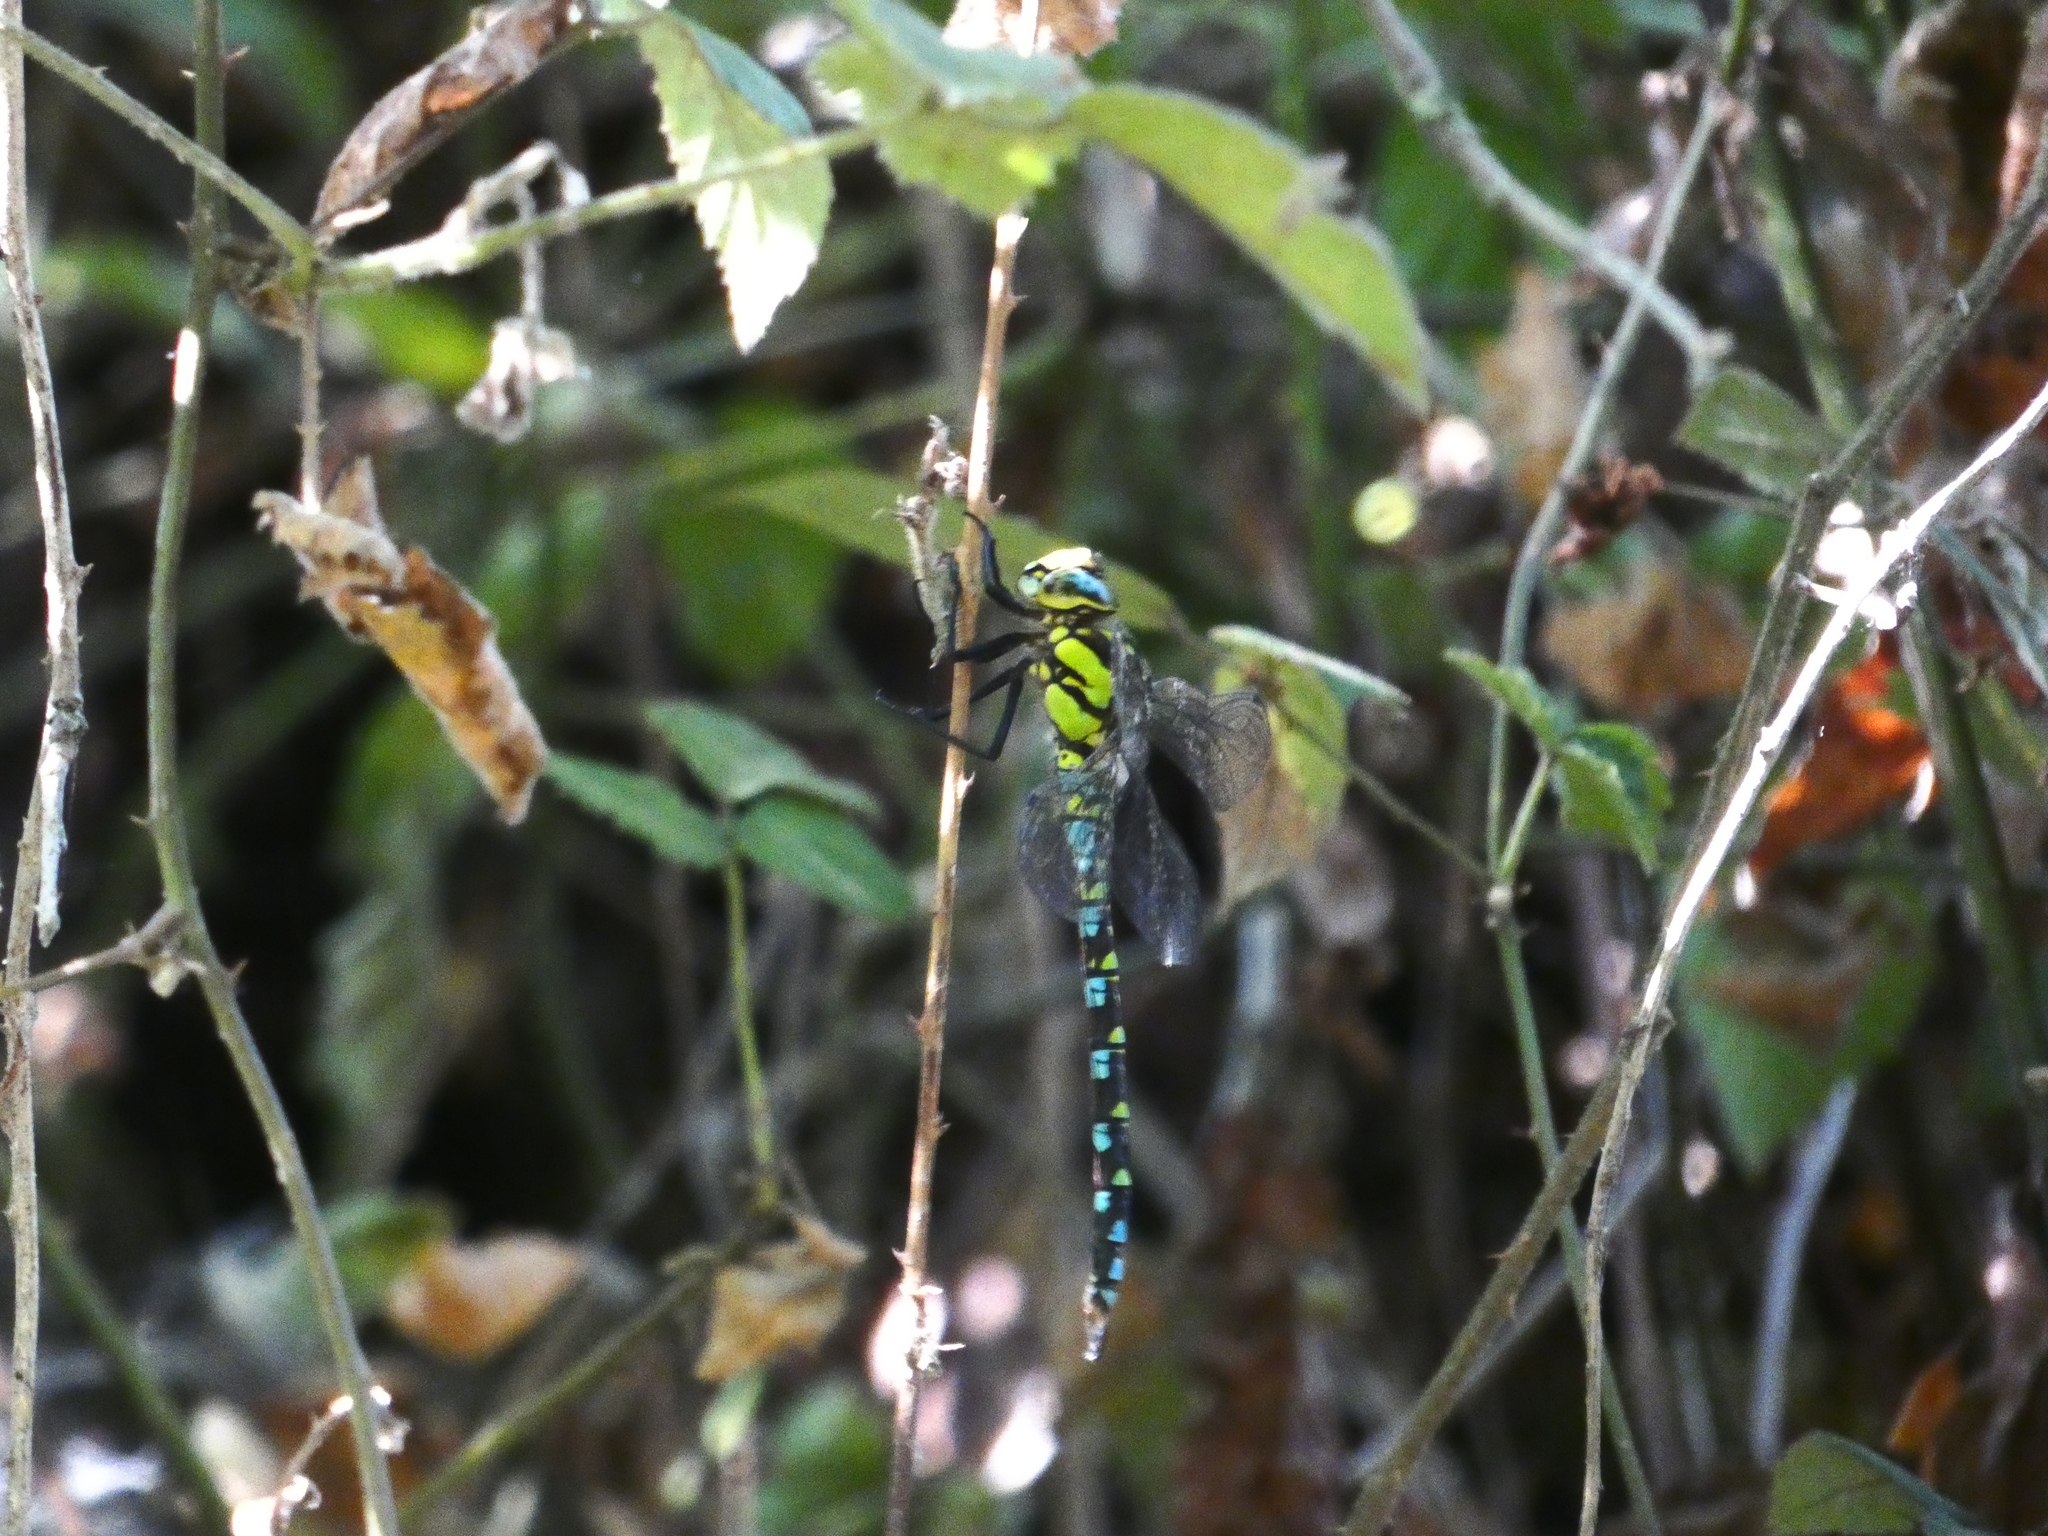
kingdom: Animalia
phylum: Arthropoda
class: Insecta
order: Odonata
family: Aeshnidae
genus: Aeshna
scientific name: Aeshna cyanea
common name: Southern hawker
